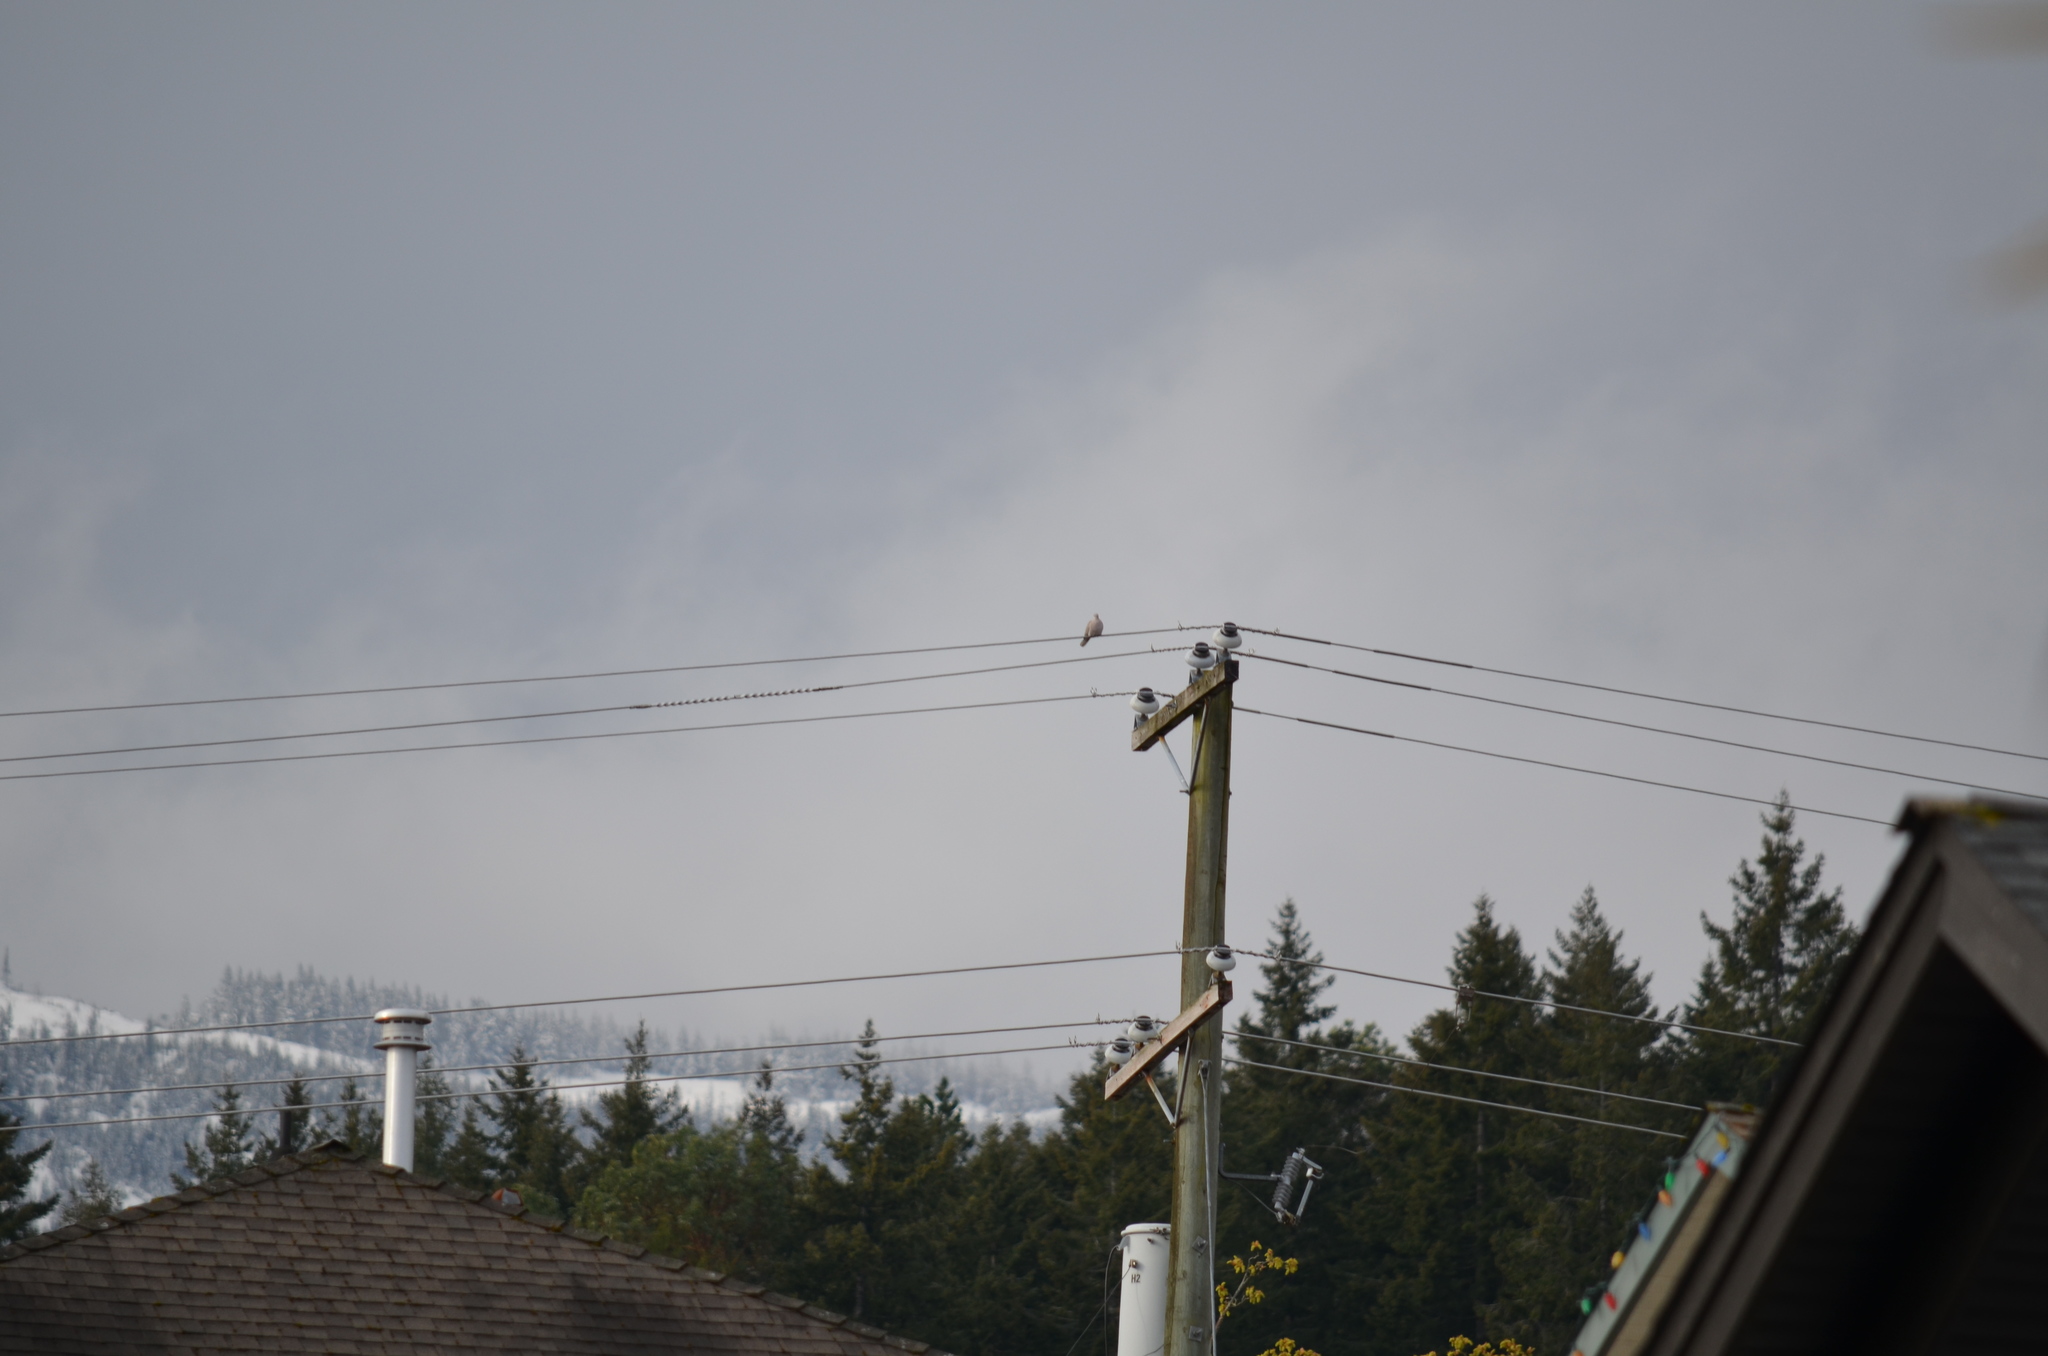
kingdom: Animalia
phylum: Chordata
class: Aves
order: Columbiformes
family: Columbidae
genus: Streptopelia
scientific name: Streptopelia decaocto
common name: Eurasian collared dove
